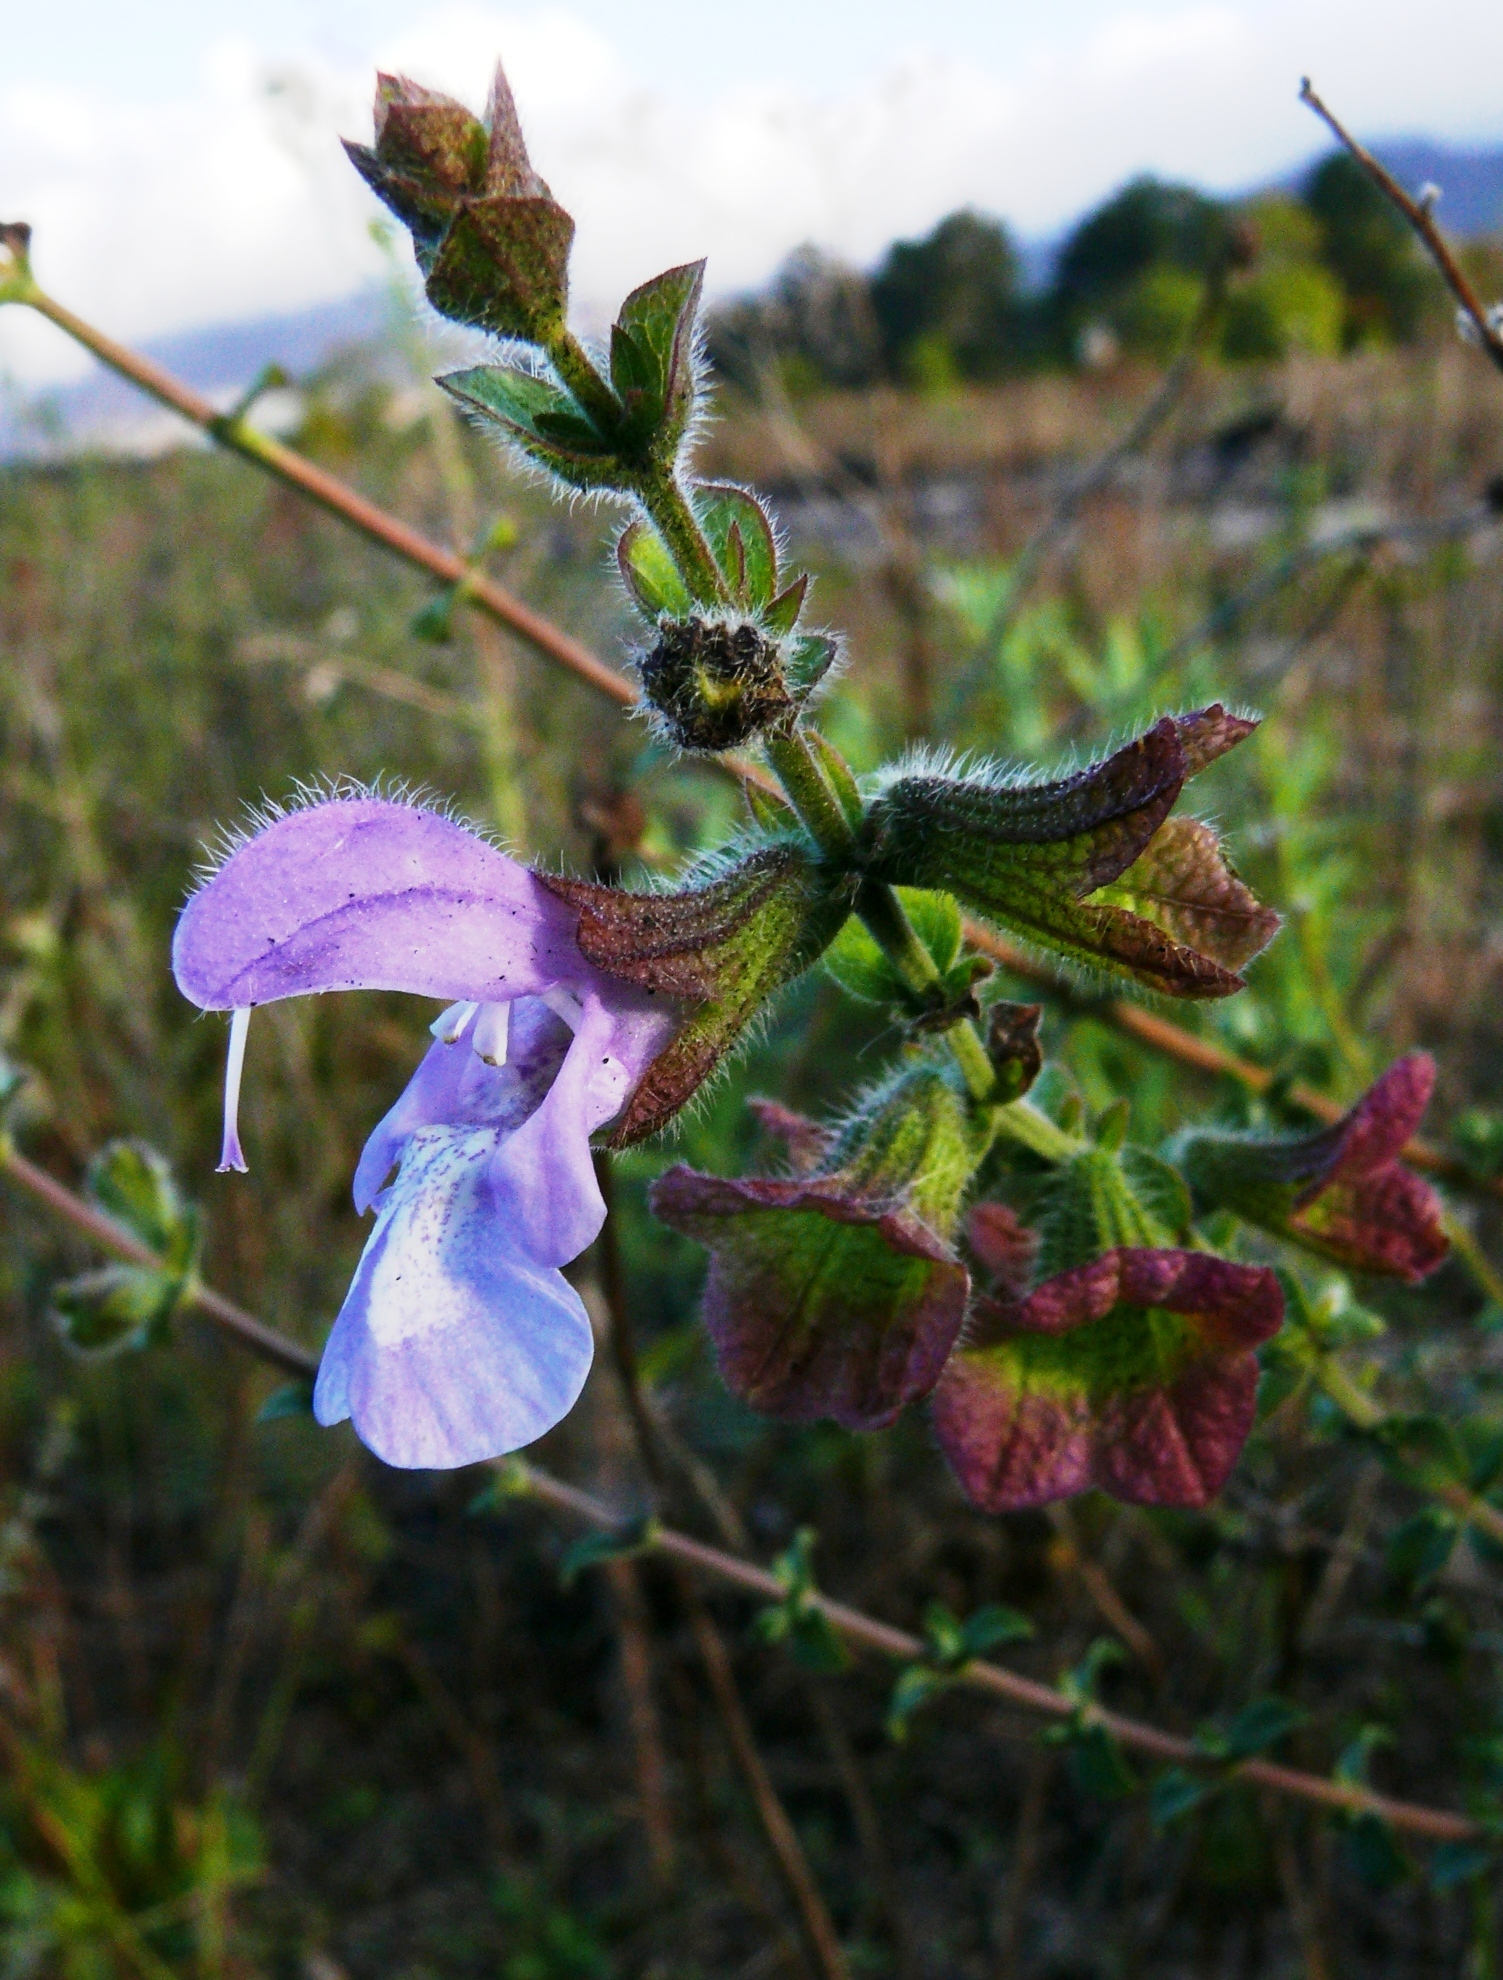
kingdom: Plantae
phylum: Tracheophyta
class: Magnoliopsida
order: Lamiales
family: Lamiaceae
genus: Salvia
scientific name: Salvia africana
